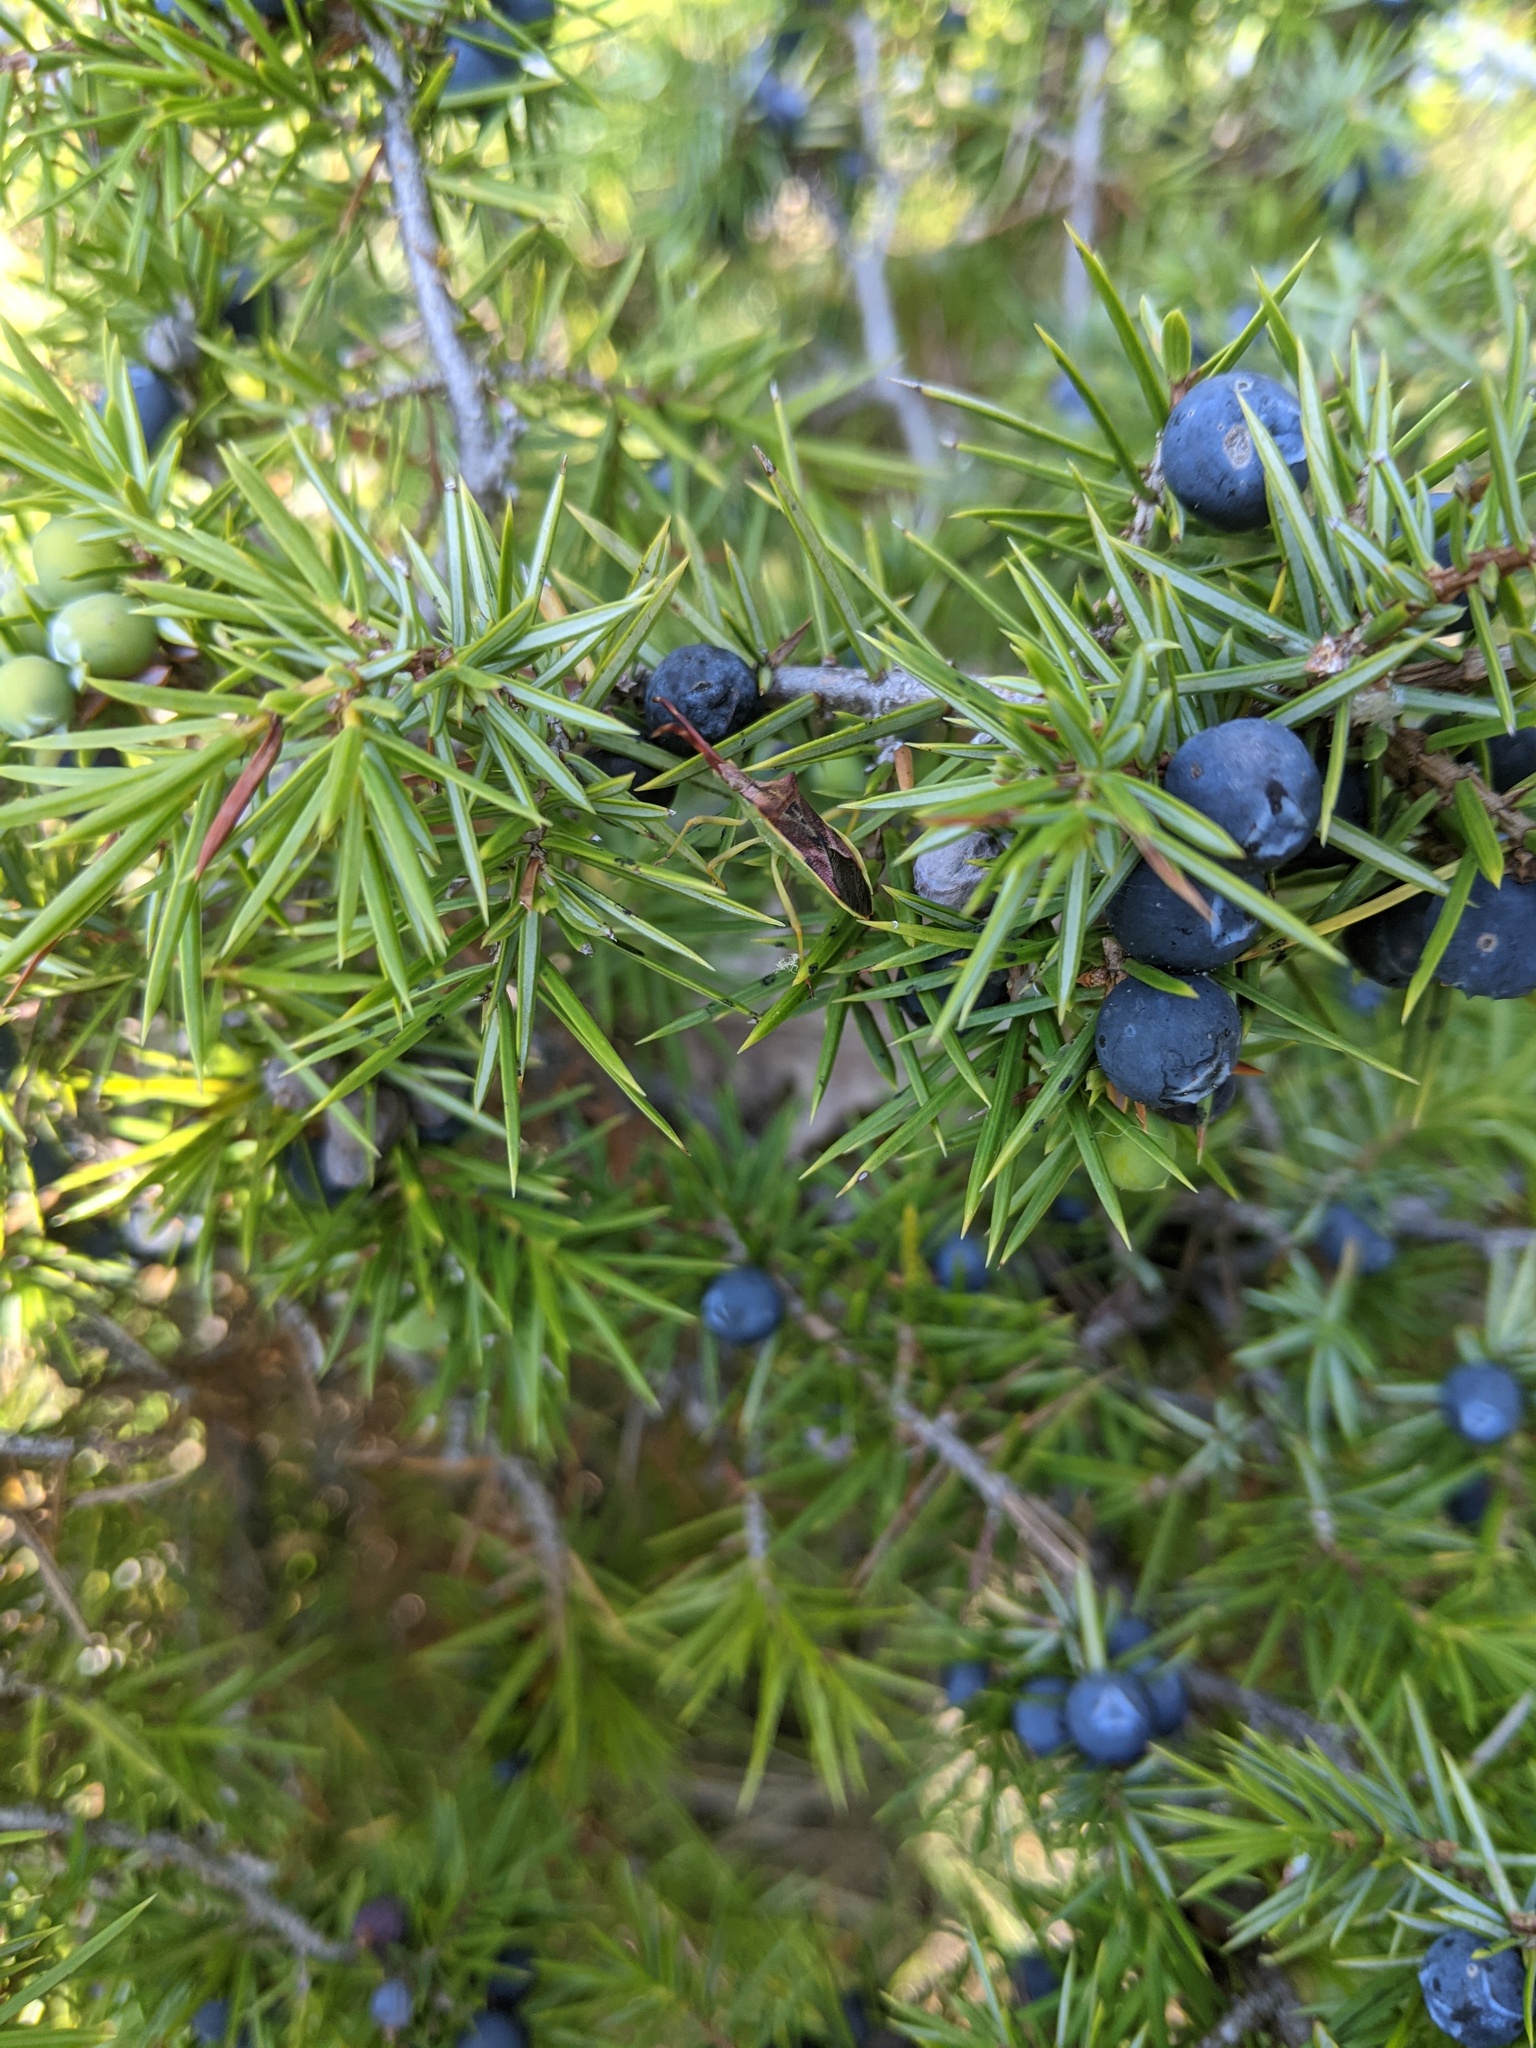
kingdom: Plantae
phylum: Tracheophyta
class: Pinopsida
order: Pinales
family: Cupressaceae
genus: Juniperus
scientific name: Juniperus communis
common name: Common juniper
